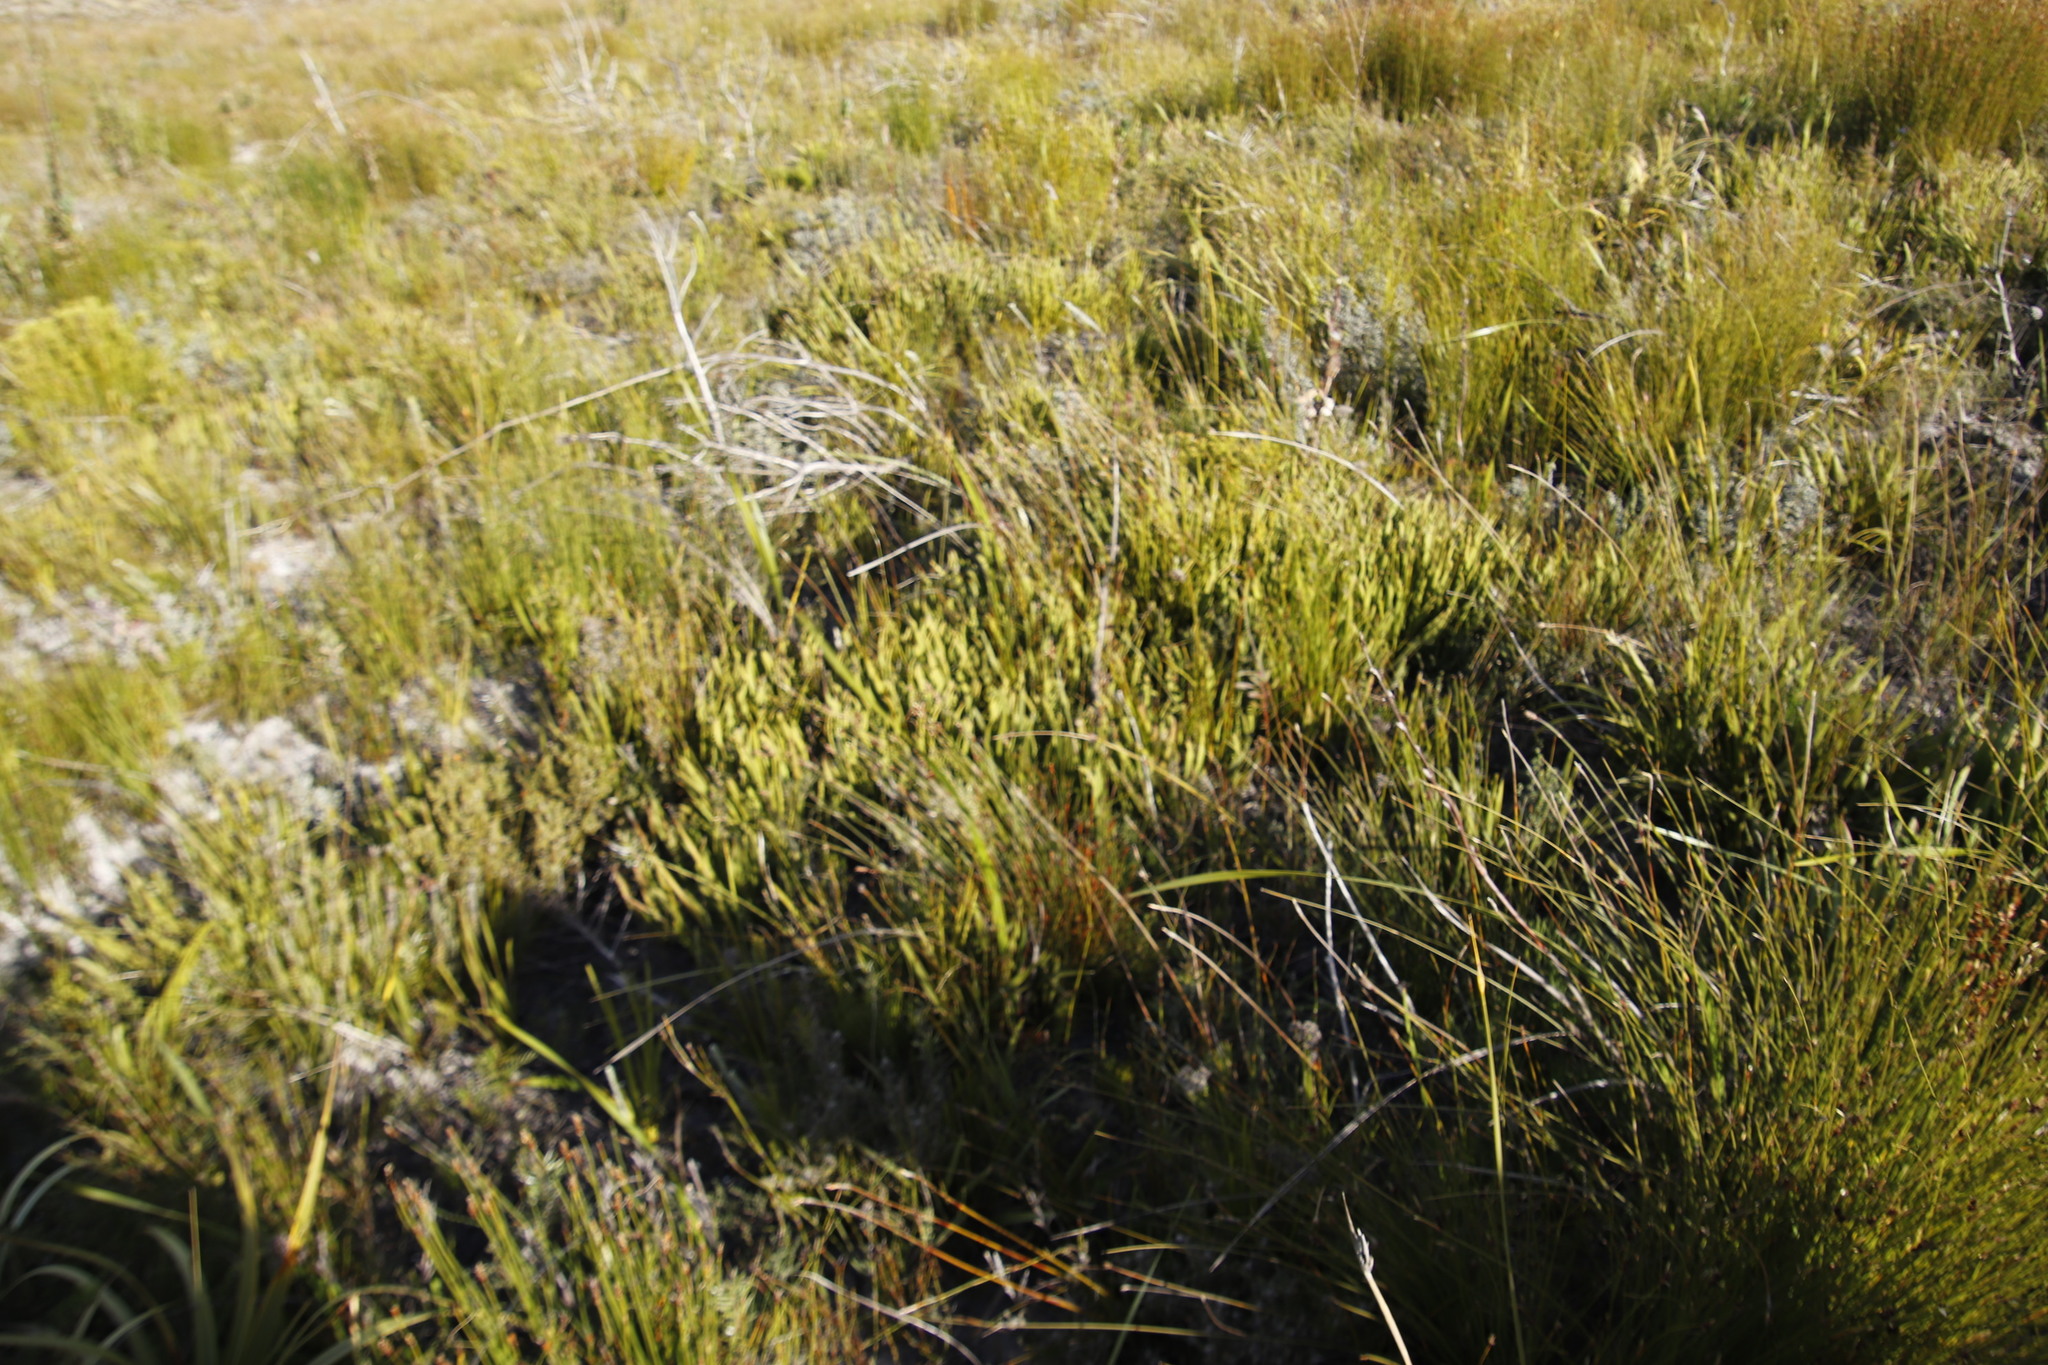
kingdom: Plantae
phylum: Tracheophyta
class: Magnoliopsida
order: Proteales
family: Proteaceae
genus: Protea
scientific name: Protea scabra
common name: Sandpaper-leaf sugarbush
